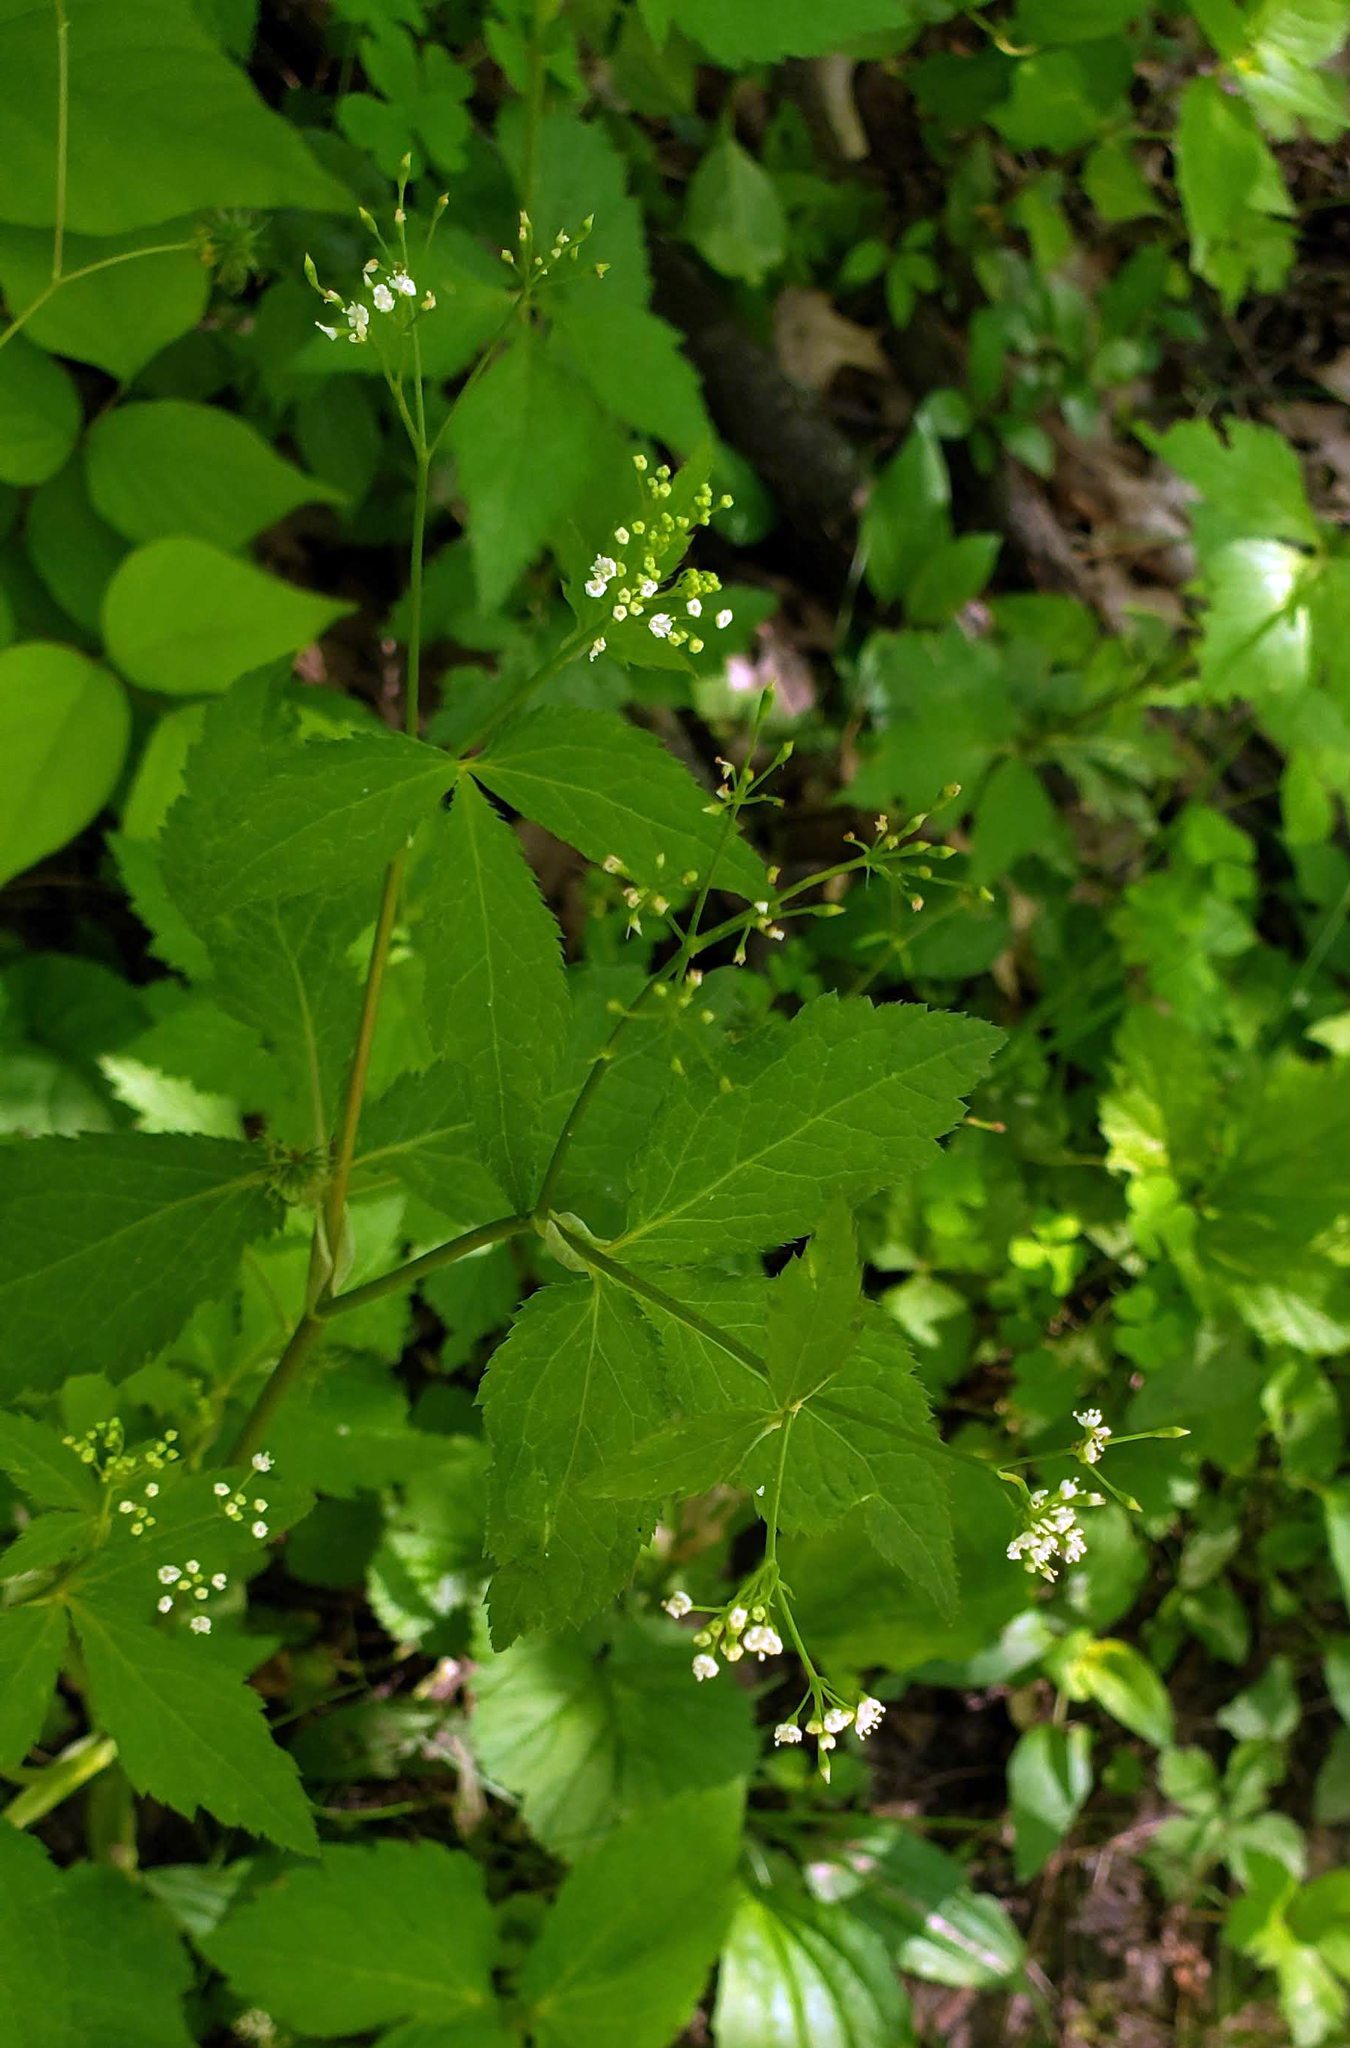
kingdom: Plantae
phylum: Tracheophyta
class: Magnoliopsida
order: Apiales
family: Apiaceae
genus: Cryptotaenia
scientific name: Cryptotaenia canadensis
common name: Honewort
